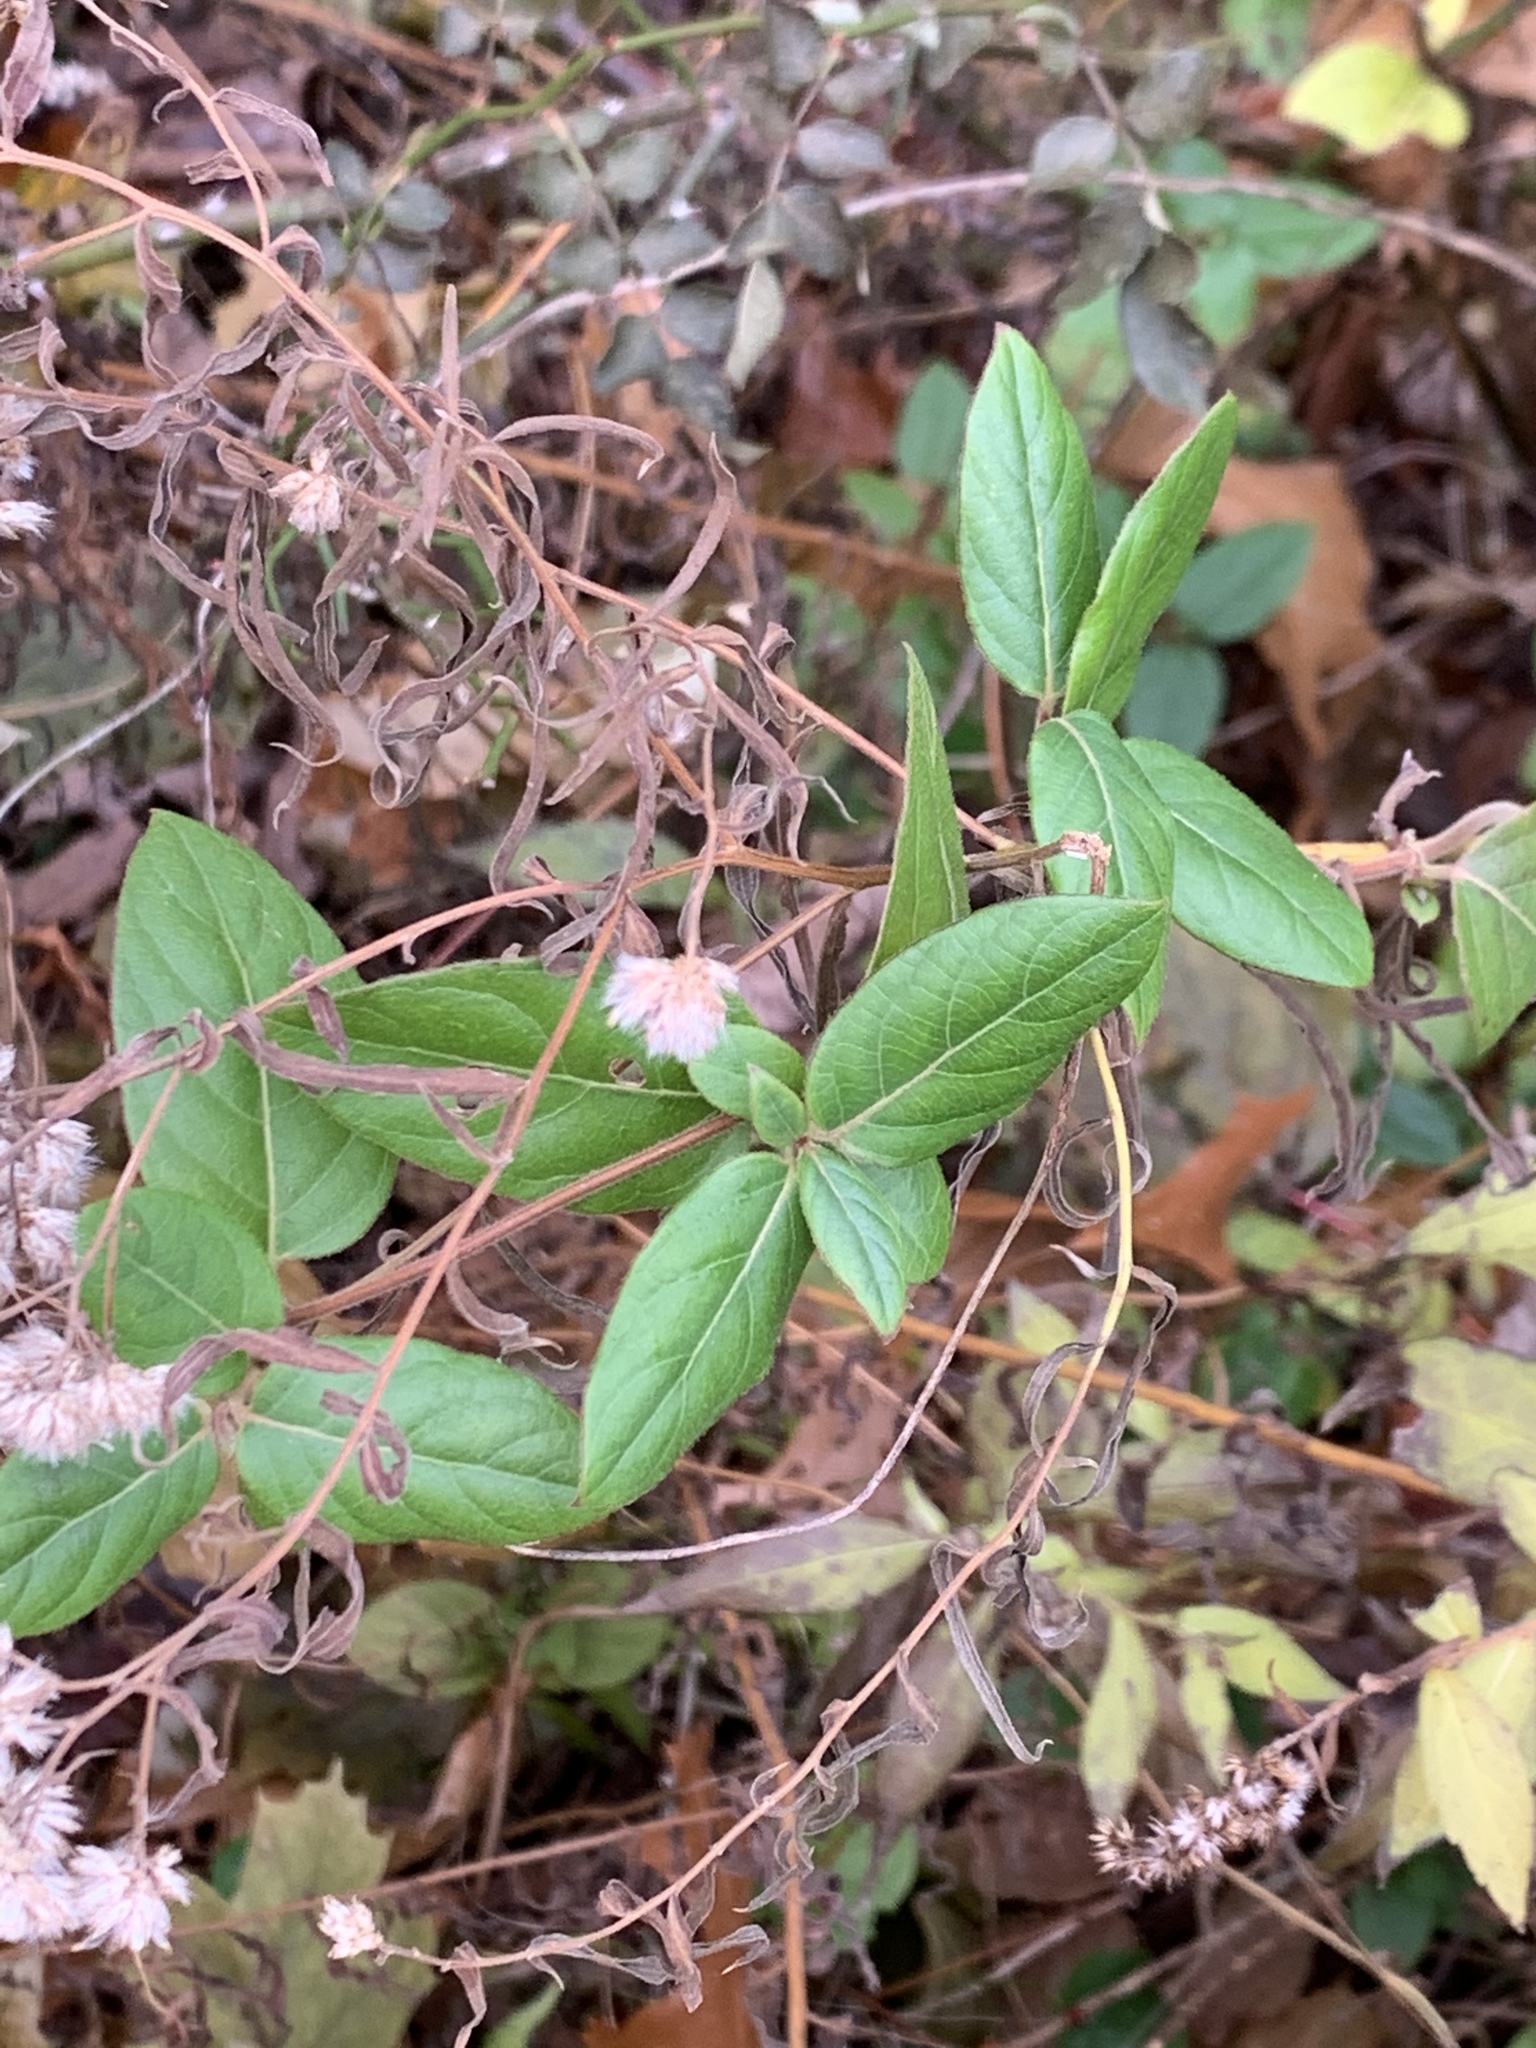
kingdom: Plantae
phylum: Tracheophyta
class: Magnoliopsida
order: Dipsacales
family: Caprifoliaceae
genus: Lonicera
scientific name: Lonicera japonica
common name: Japanese honeysuckle
